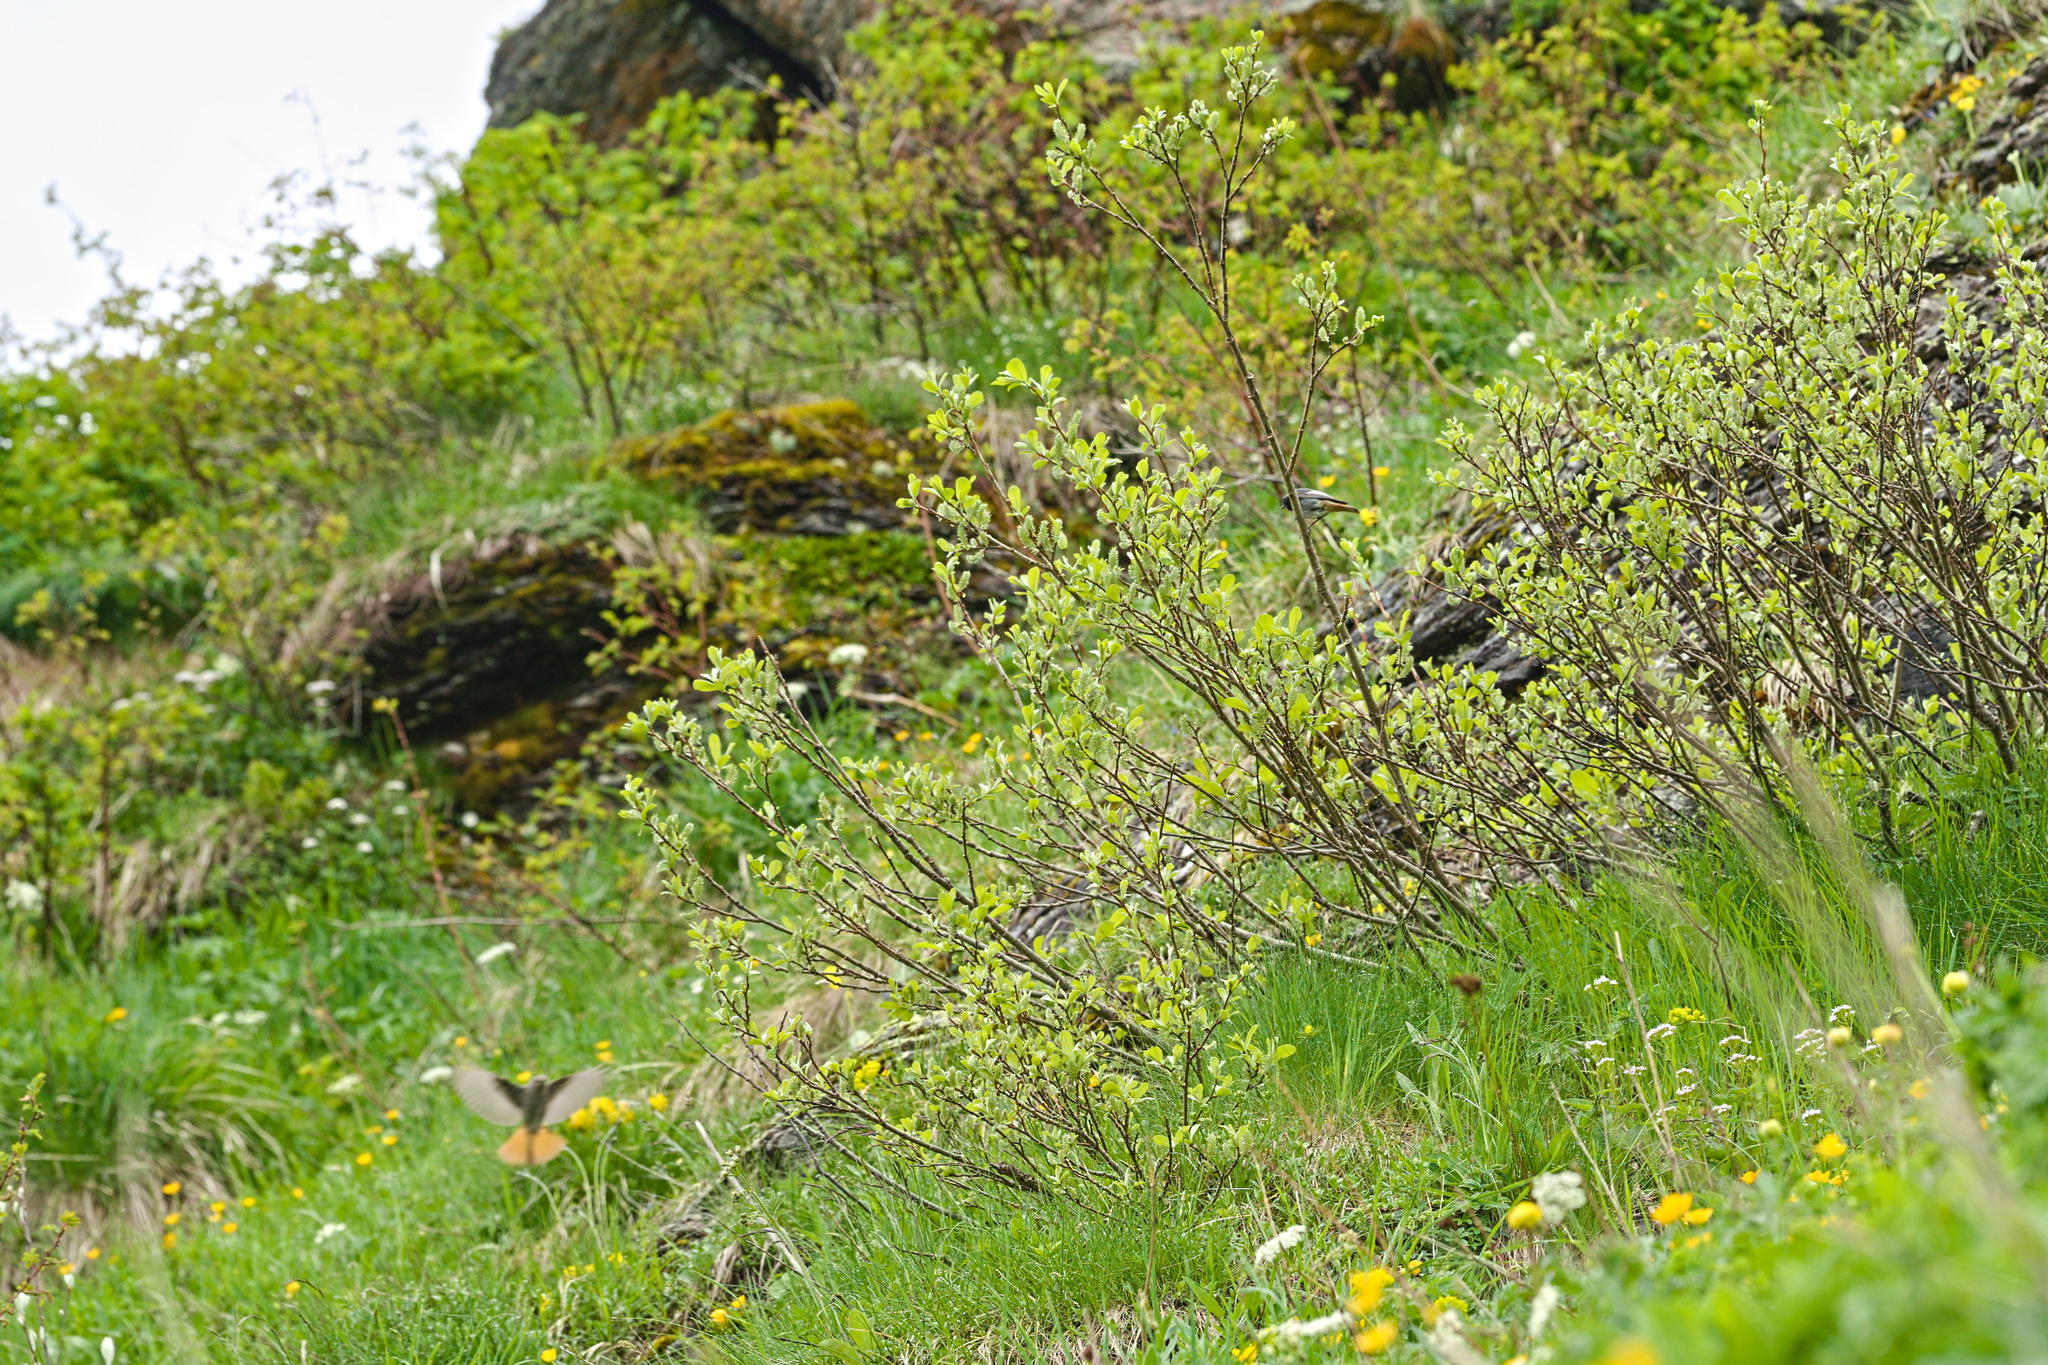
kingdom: Animalia
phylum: Chordata
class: Aves
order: Passeriformes
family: Muscicapidae
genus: Phoenicurus
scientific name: Phoenicurus ochruros
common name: Black redstart
